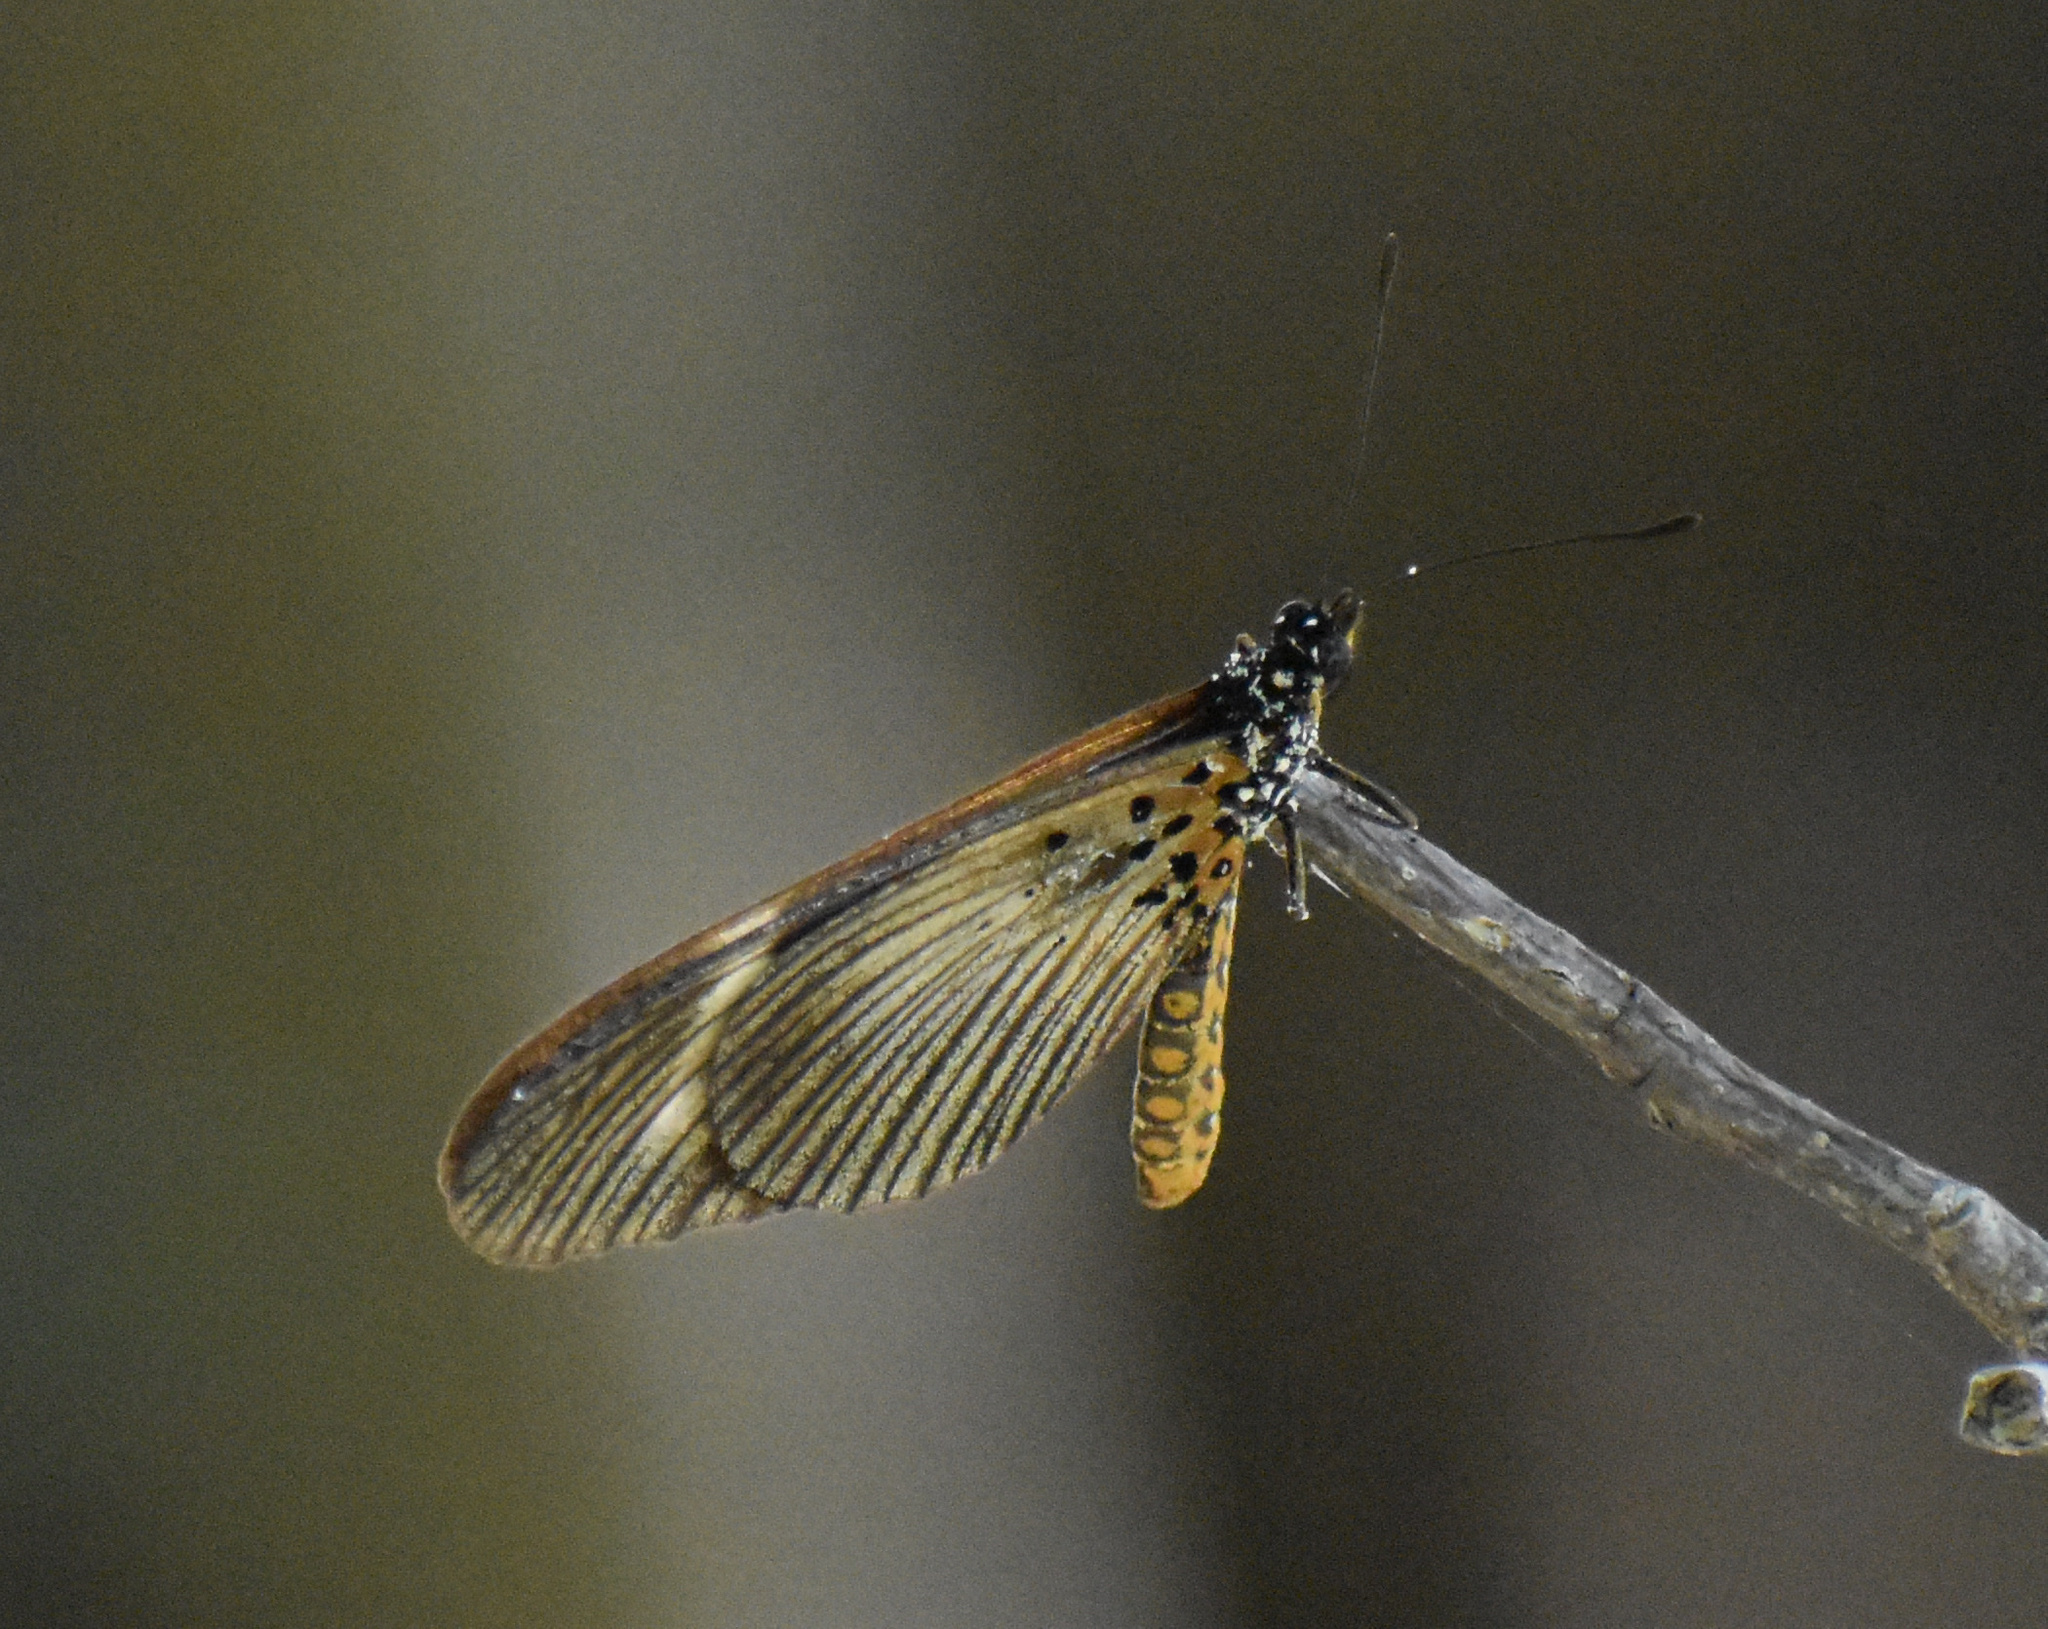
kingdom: Animalia
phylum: Arthropoda
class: Insecta
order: Lepidoptera
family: Nymphalidae
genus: Acraea
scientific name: Acraea esebria
